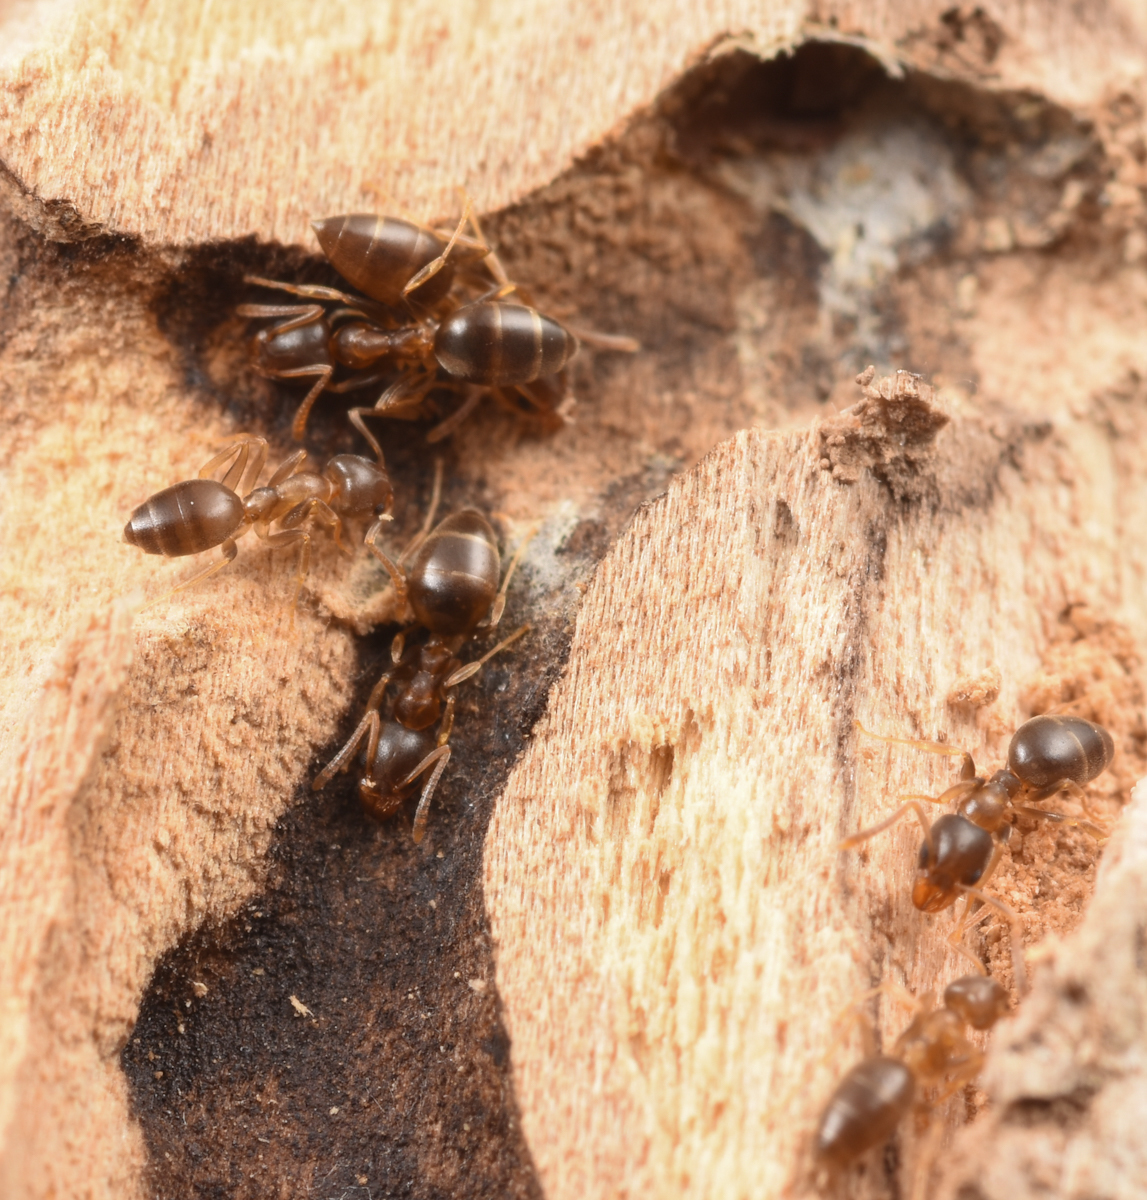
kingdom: Animalia
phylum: Arthropoda
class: Insecta
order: Hymenoptera
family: Formicidae
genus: Technomyrmex
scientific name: Technomyrmex gibbosus
